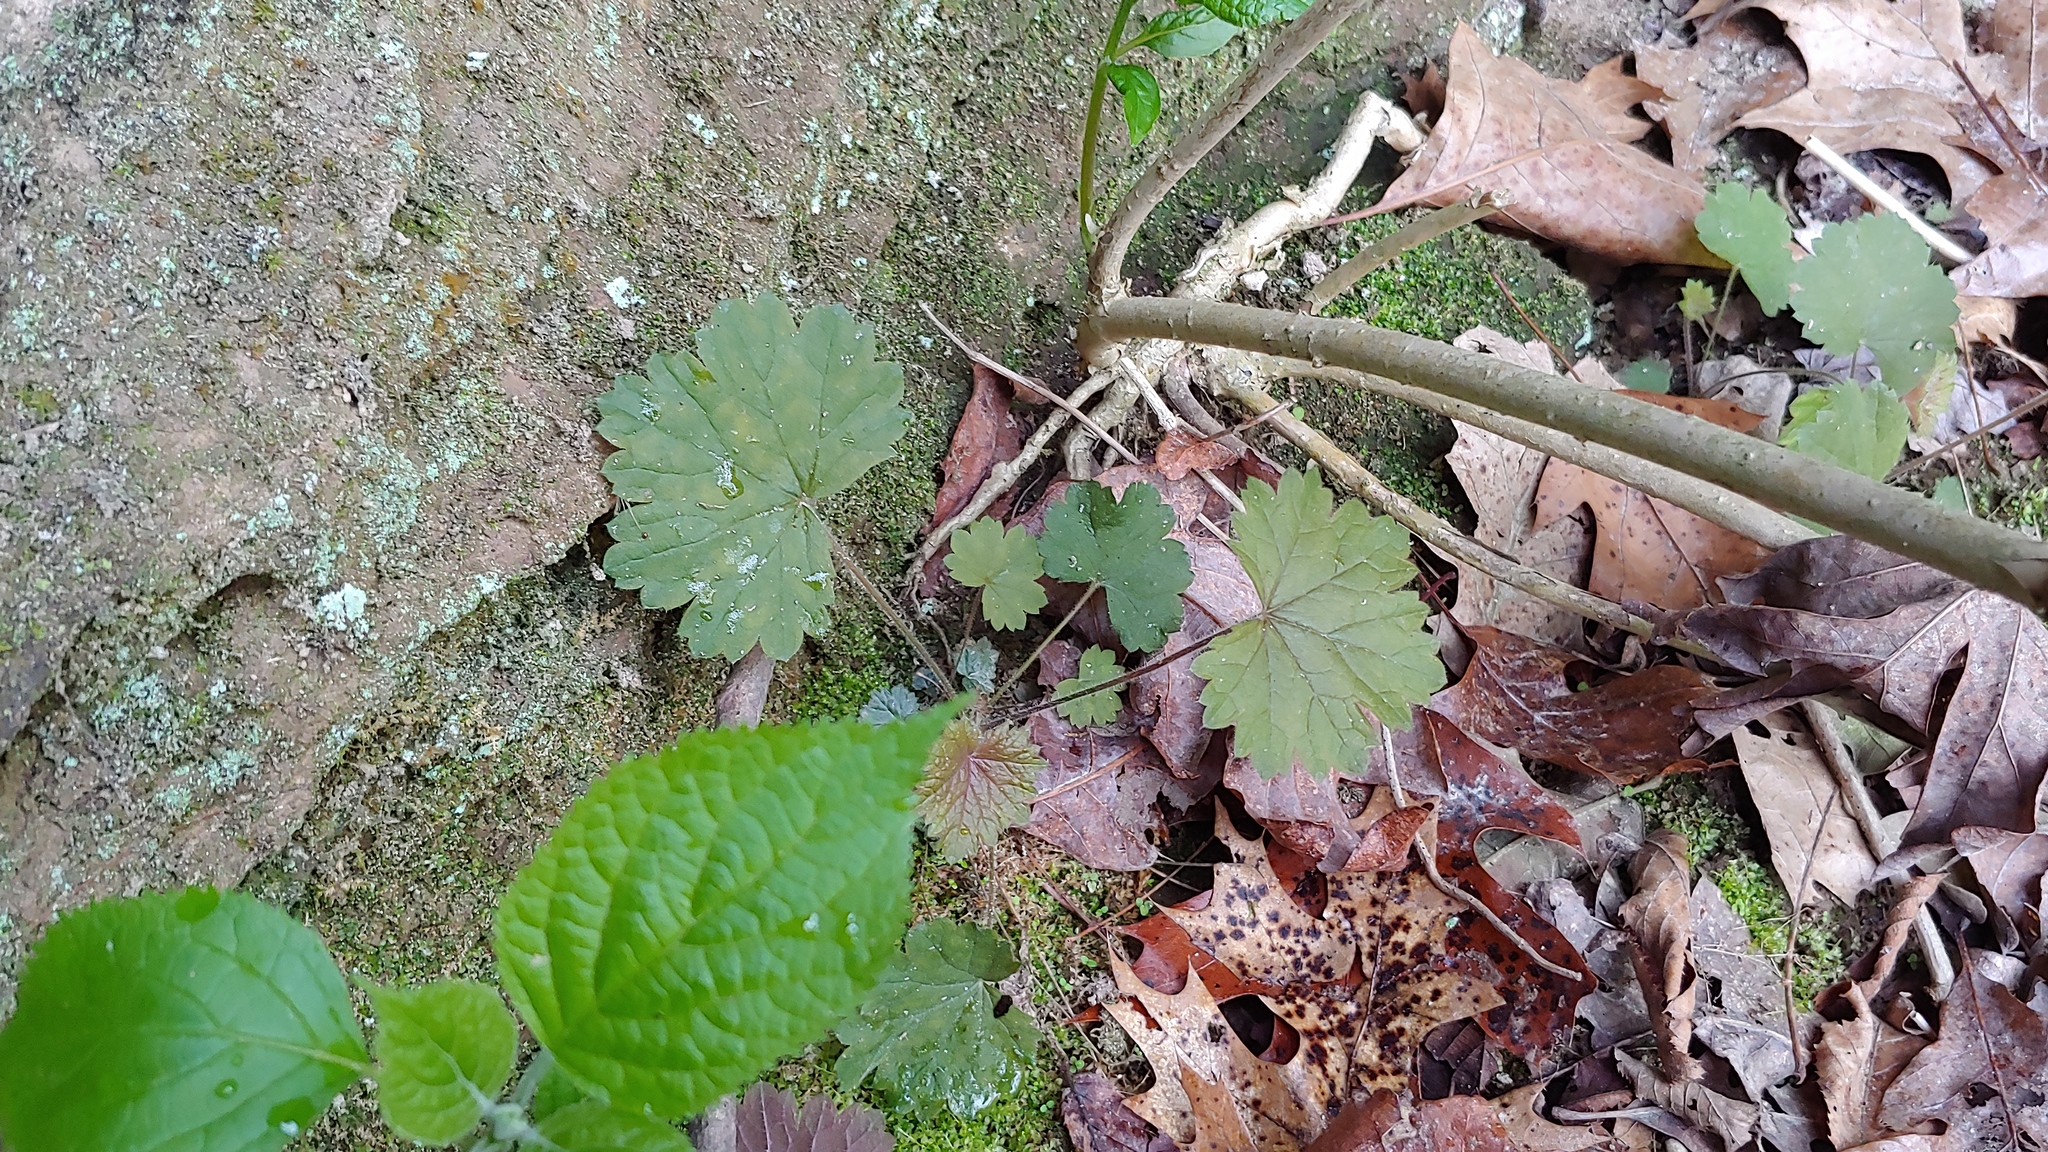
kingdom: Plantae
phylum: Tracheophyta
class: Magnoliopsida
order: Saxifragales
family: Saxifragaceae
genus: Heuchera
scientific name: Heuchera missouriensis
